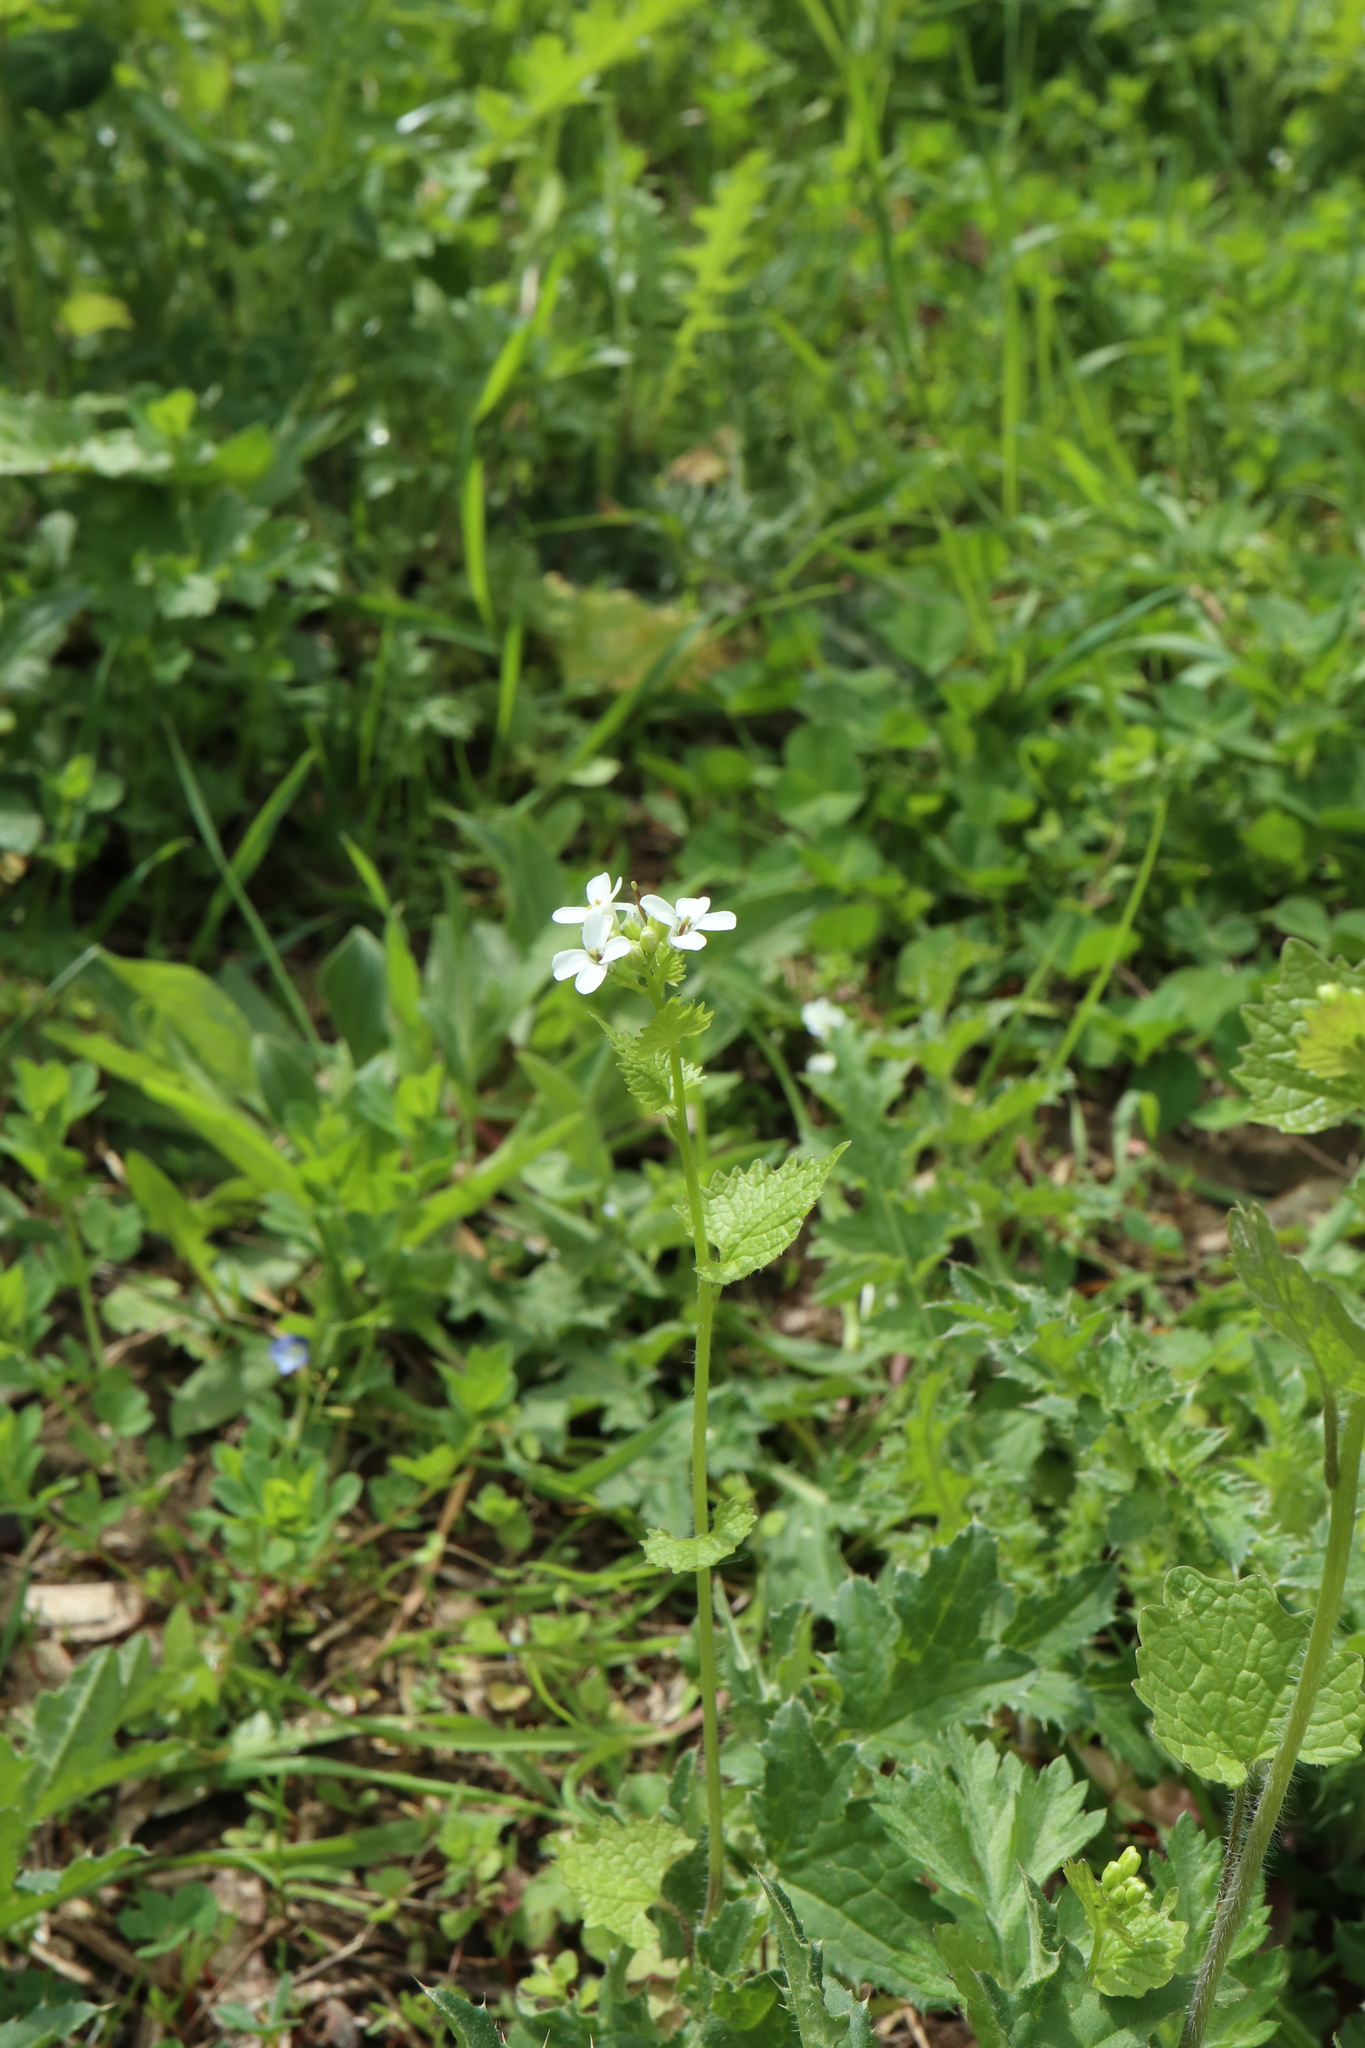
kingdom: Plantae
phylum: Tracheophyta
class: Magnoliopsida
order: Brassicales
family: Brassicaceae
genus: Alliaria
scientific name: Alliaria petiolata
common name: Garlic mustard
